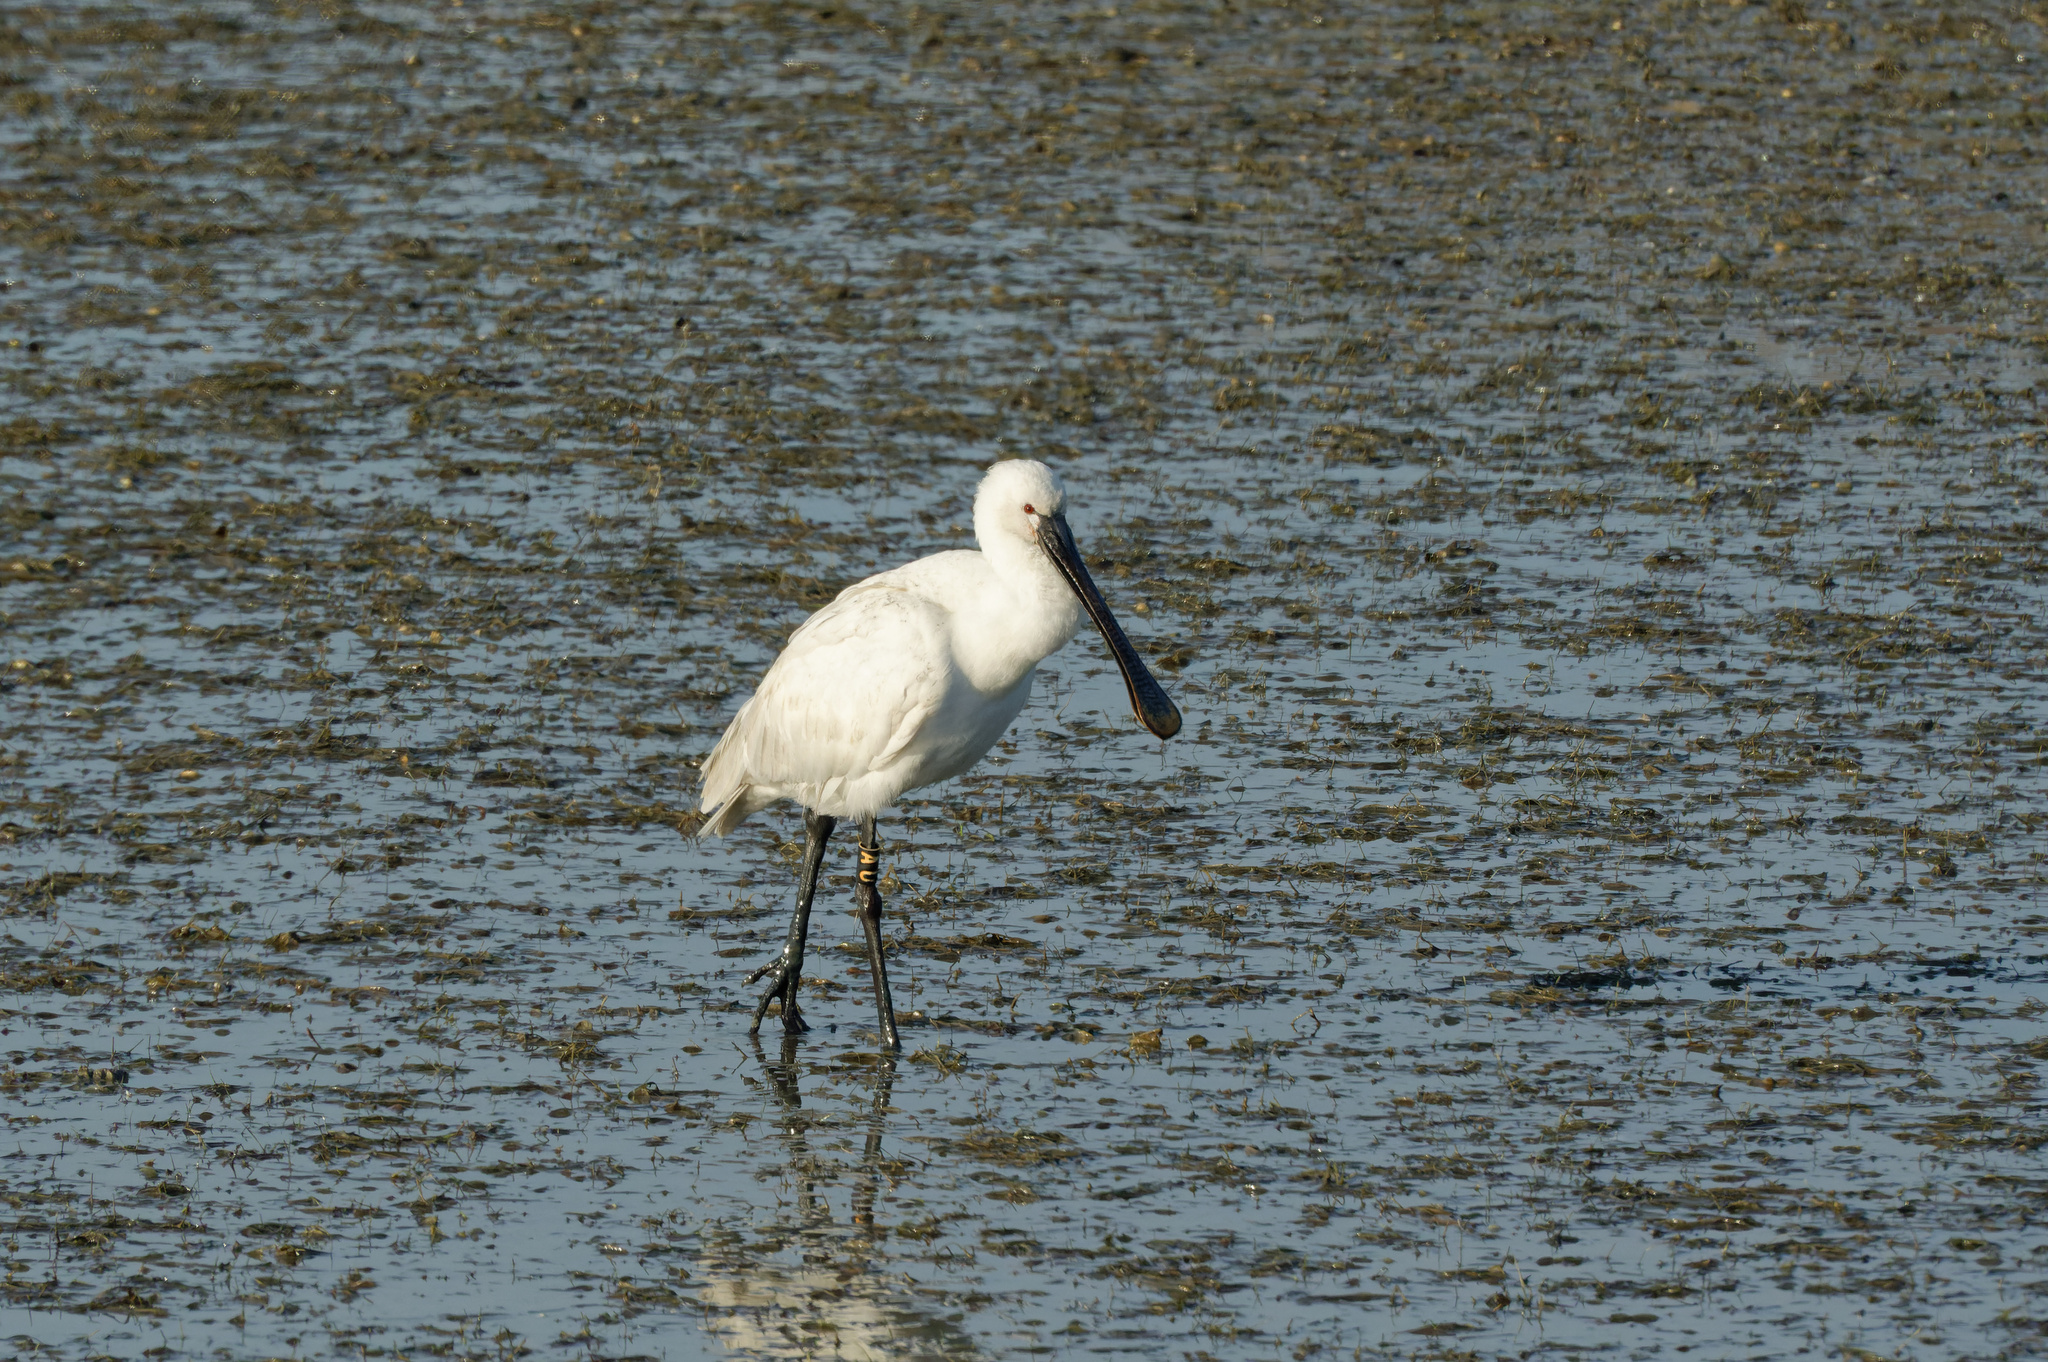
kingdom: Animalia
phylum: Chordata
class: Aves
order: Pelecaniformes
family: Threskiornithidae
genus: Platalea
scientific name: Platalea leucorodia
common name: Eurasian spoonbill
